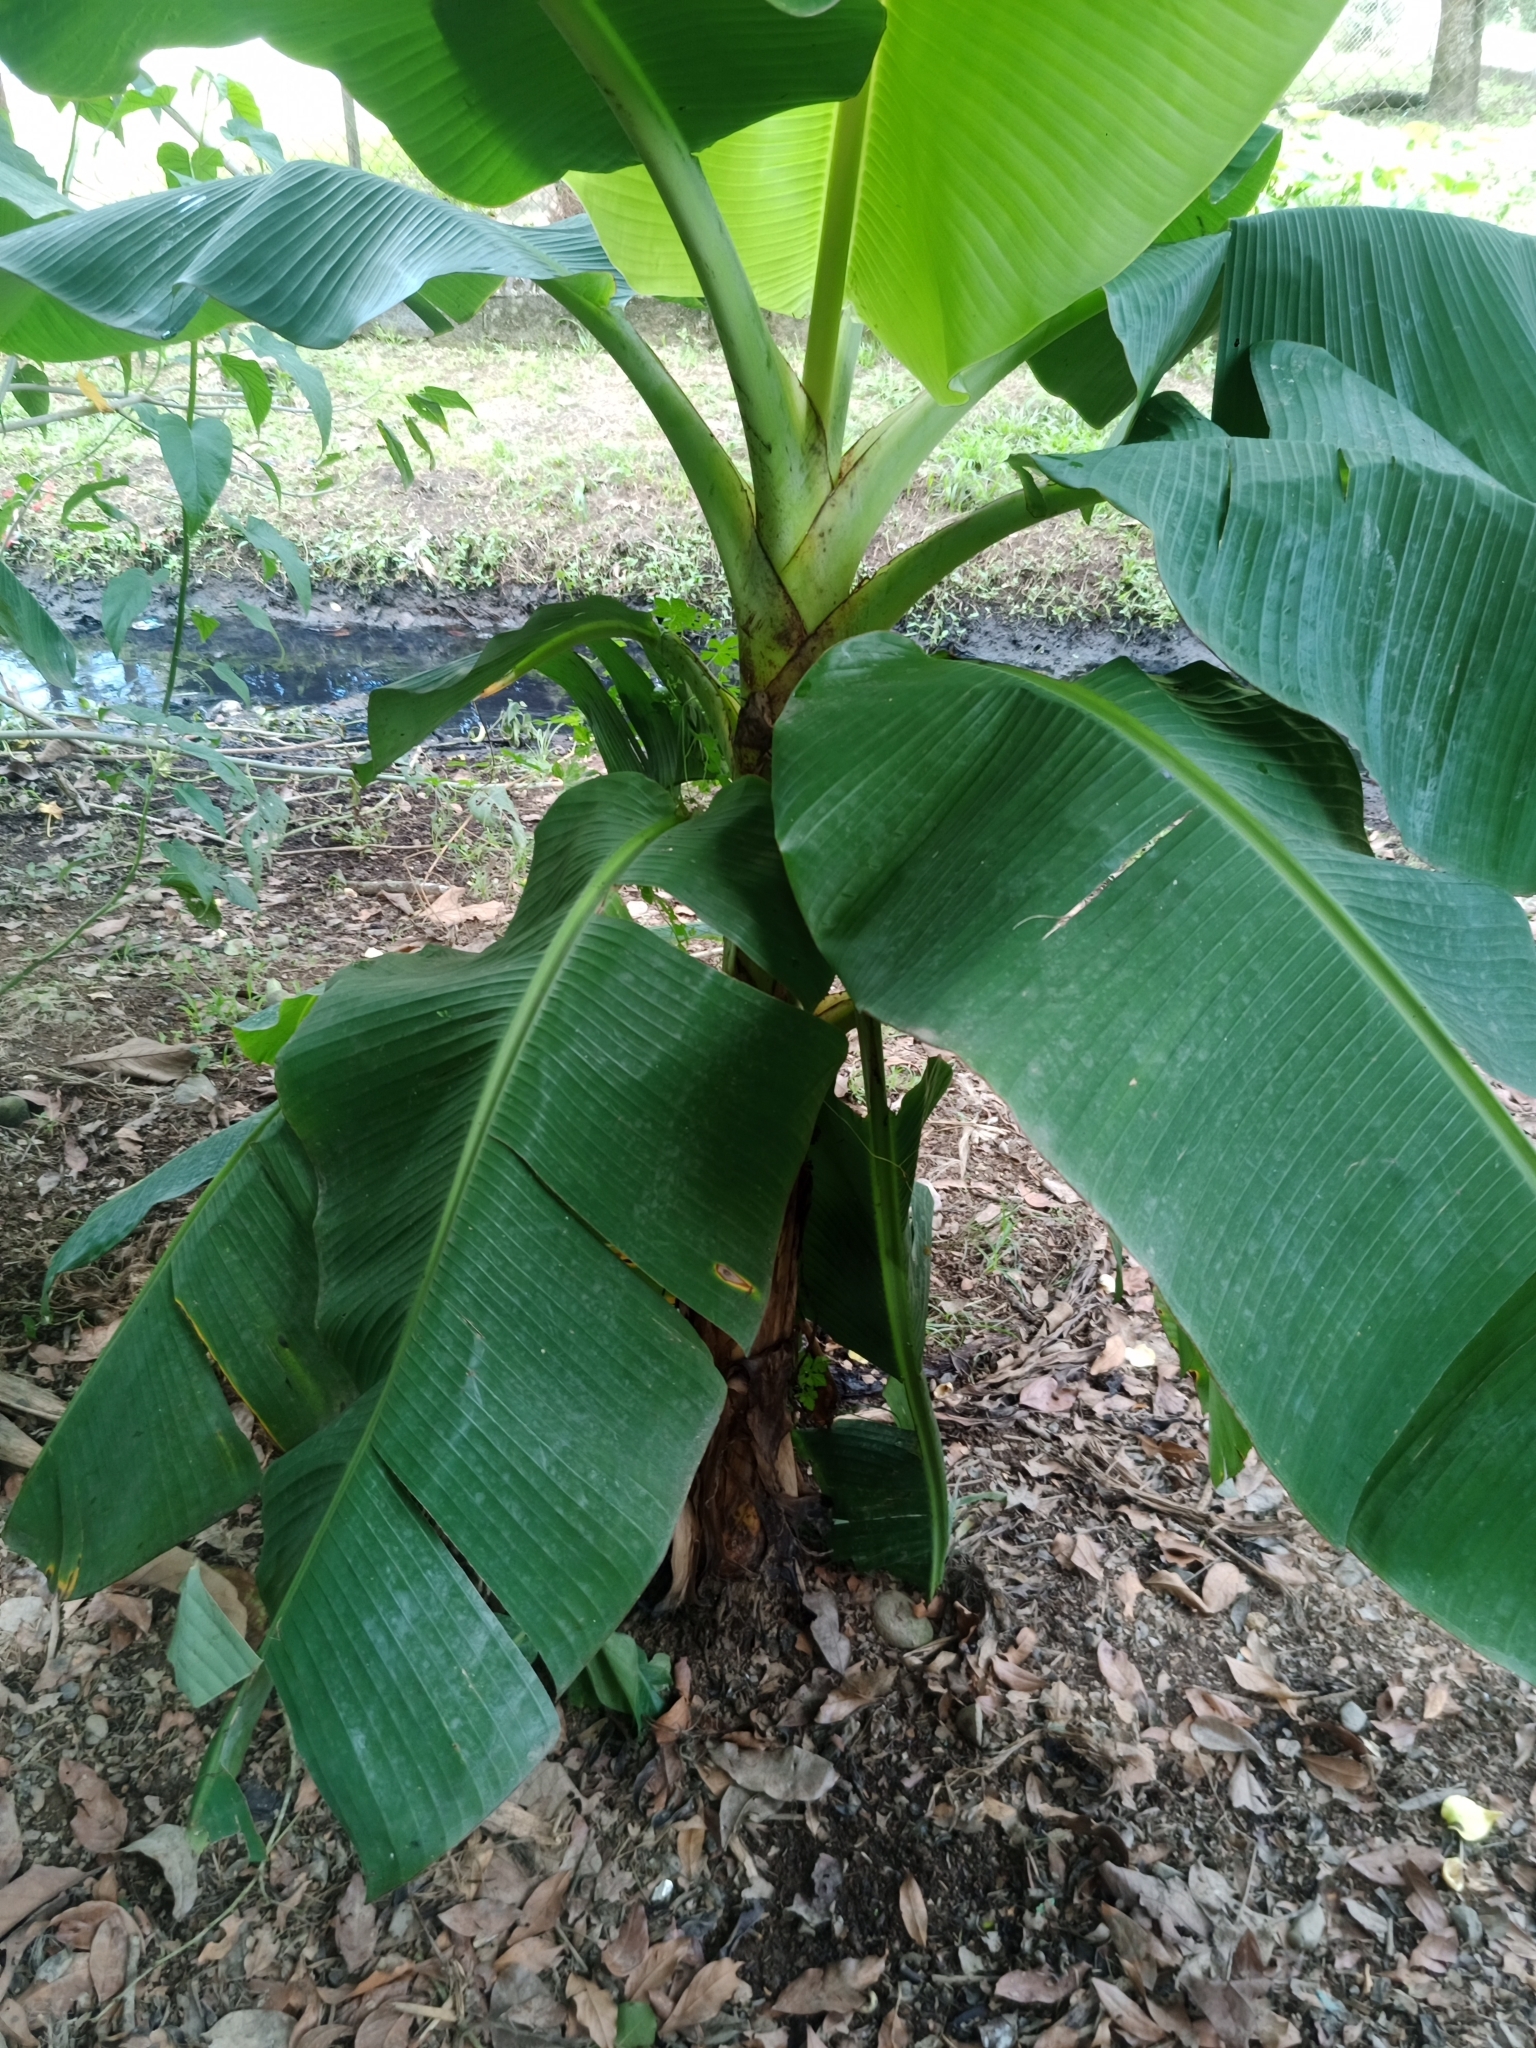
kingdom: Plantae
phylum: Tracheophyta
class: Liliopsida
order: Zingiberales
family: Musaceae
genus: Musa
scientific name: Musa paradisiaca
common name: French plantain
